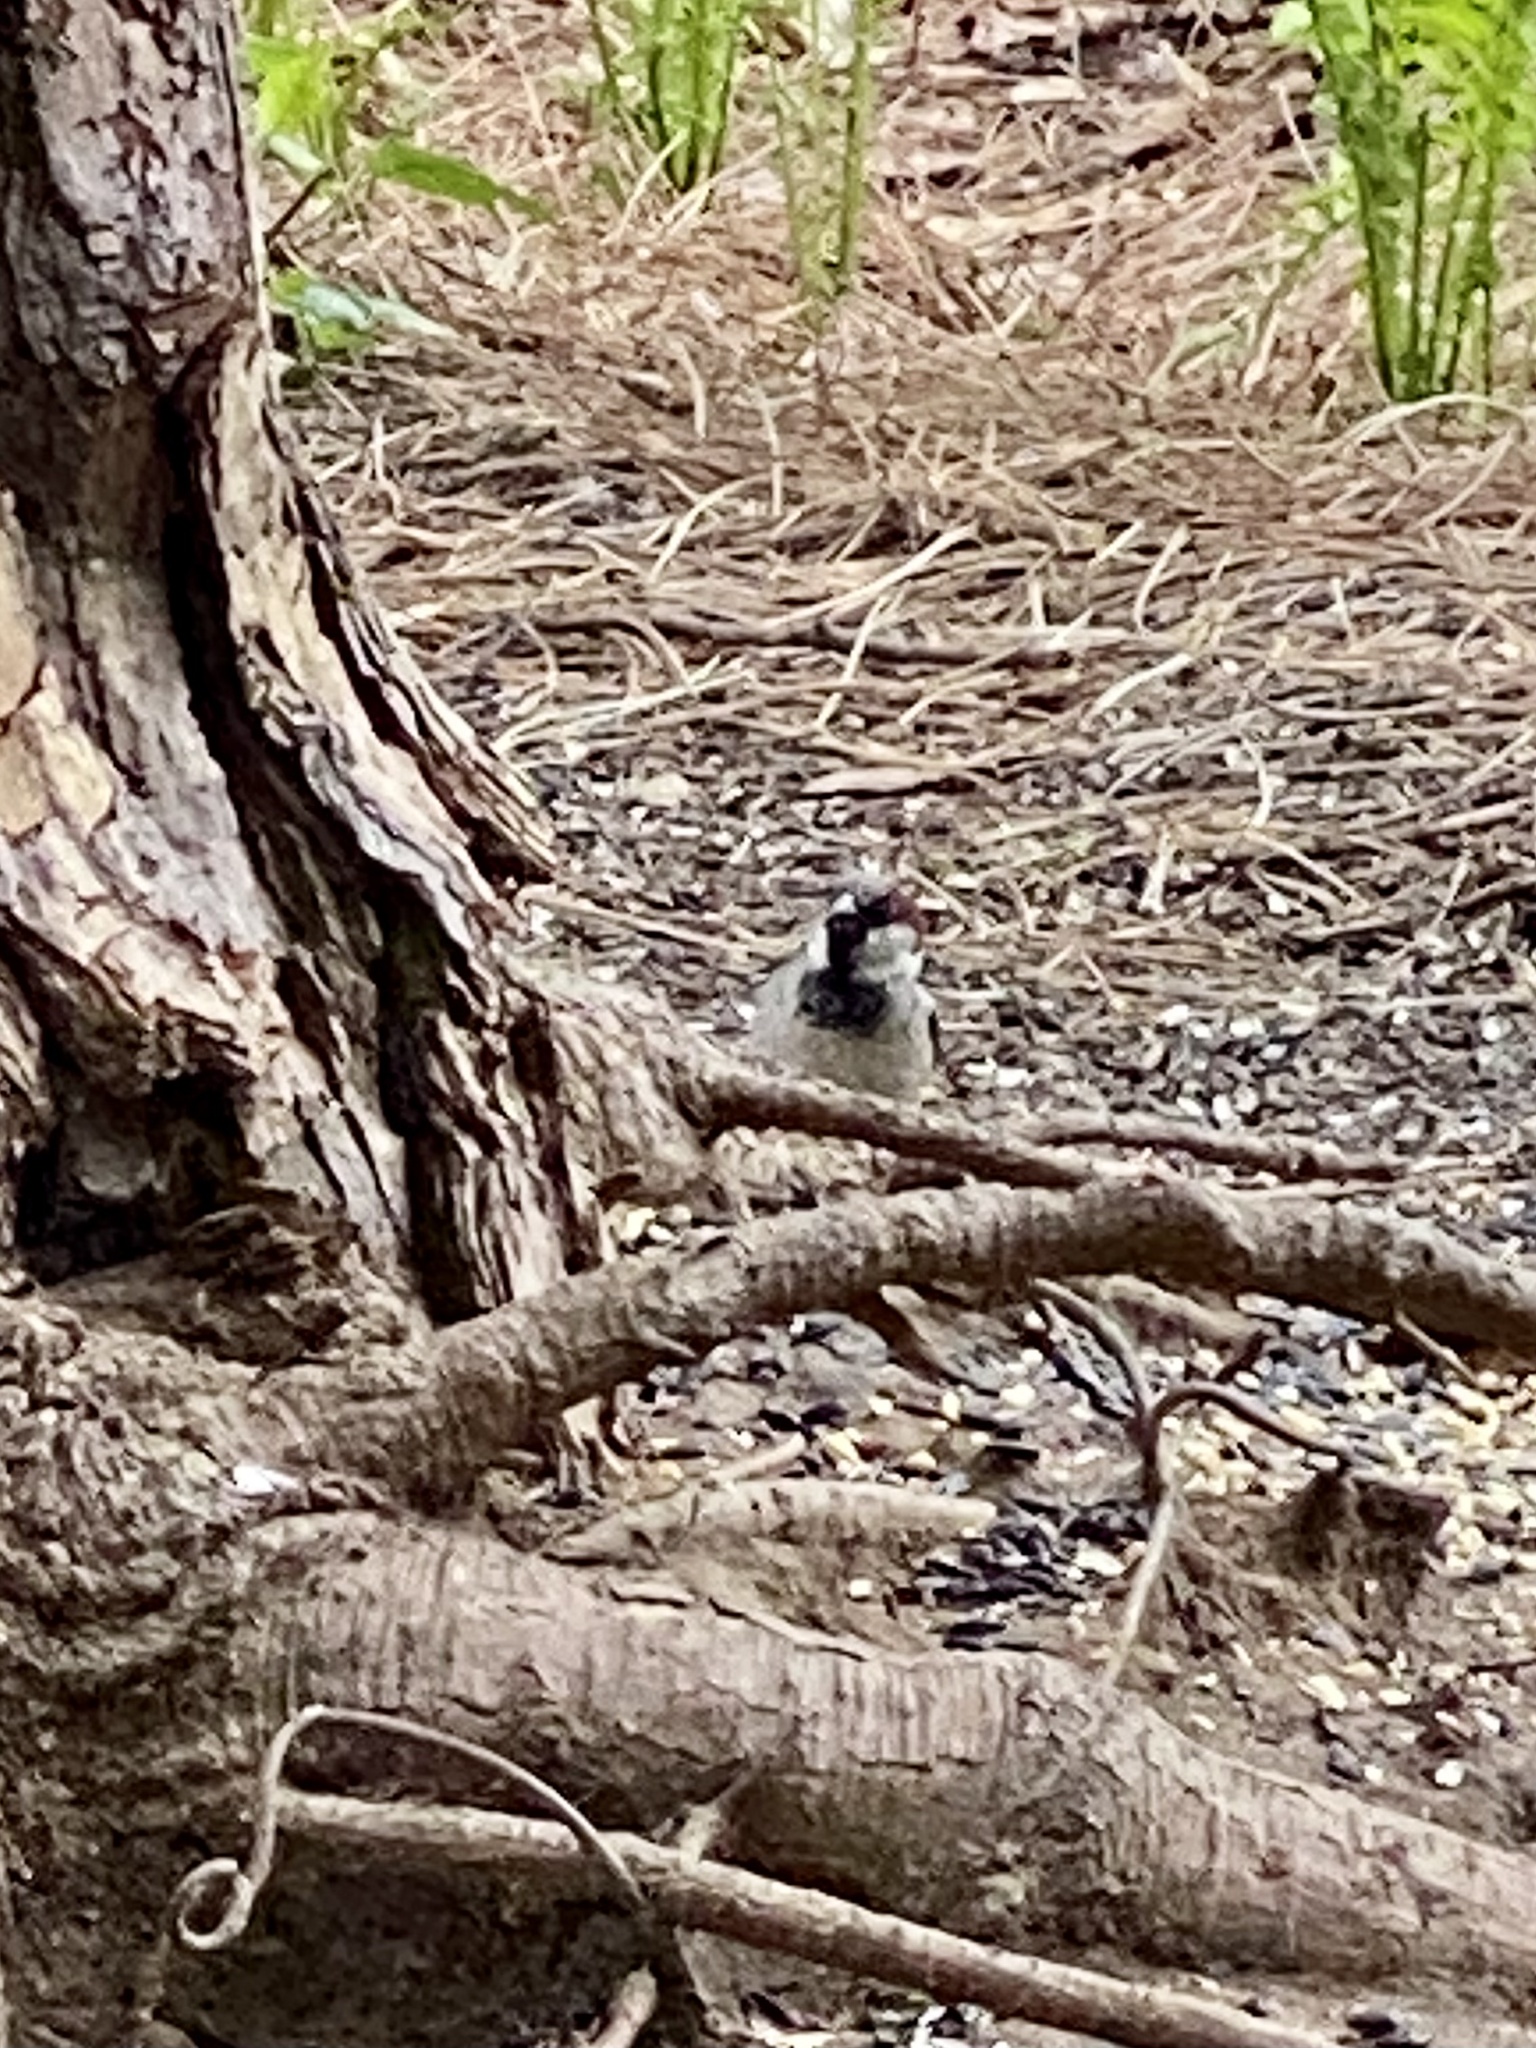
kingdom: Animalia
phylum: Chordata
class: Aves
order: Passeriformes
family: Passeridae
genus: Passer
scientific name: Passer domesticus
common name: House sparrow
